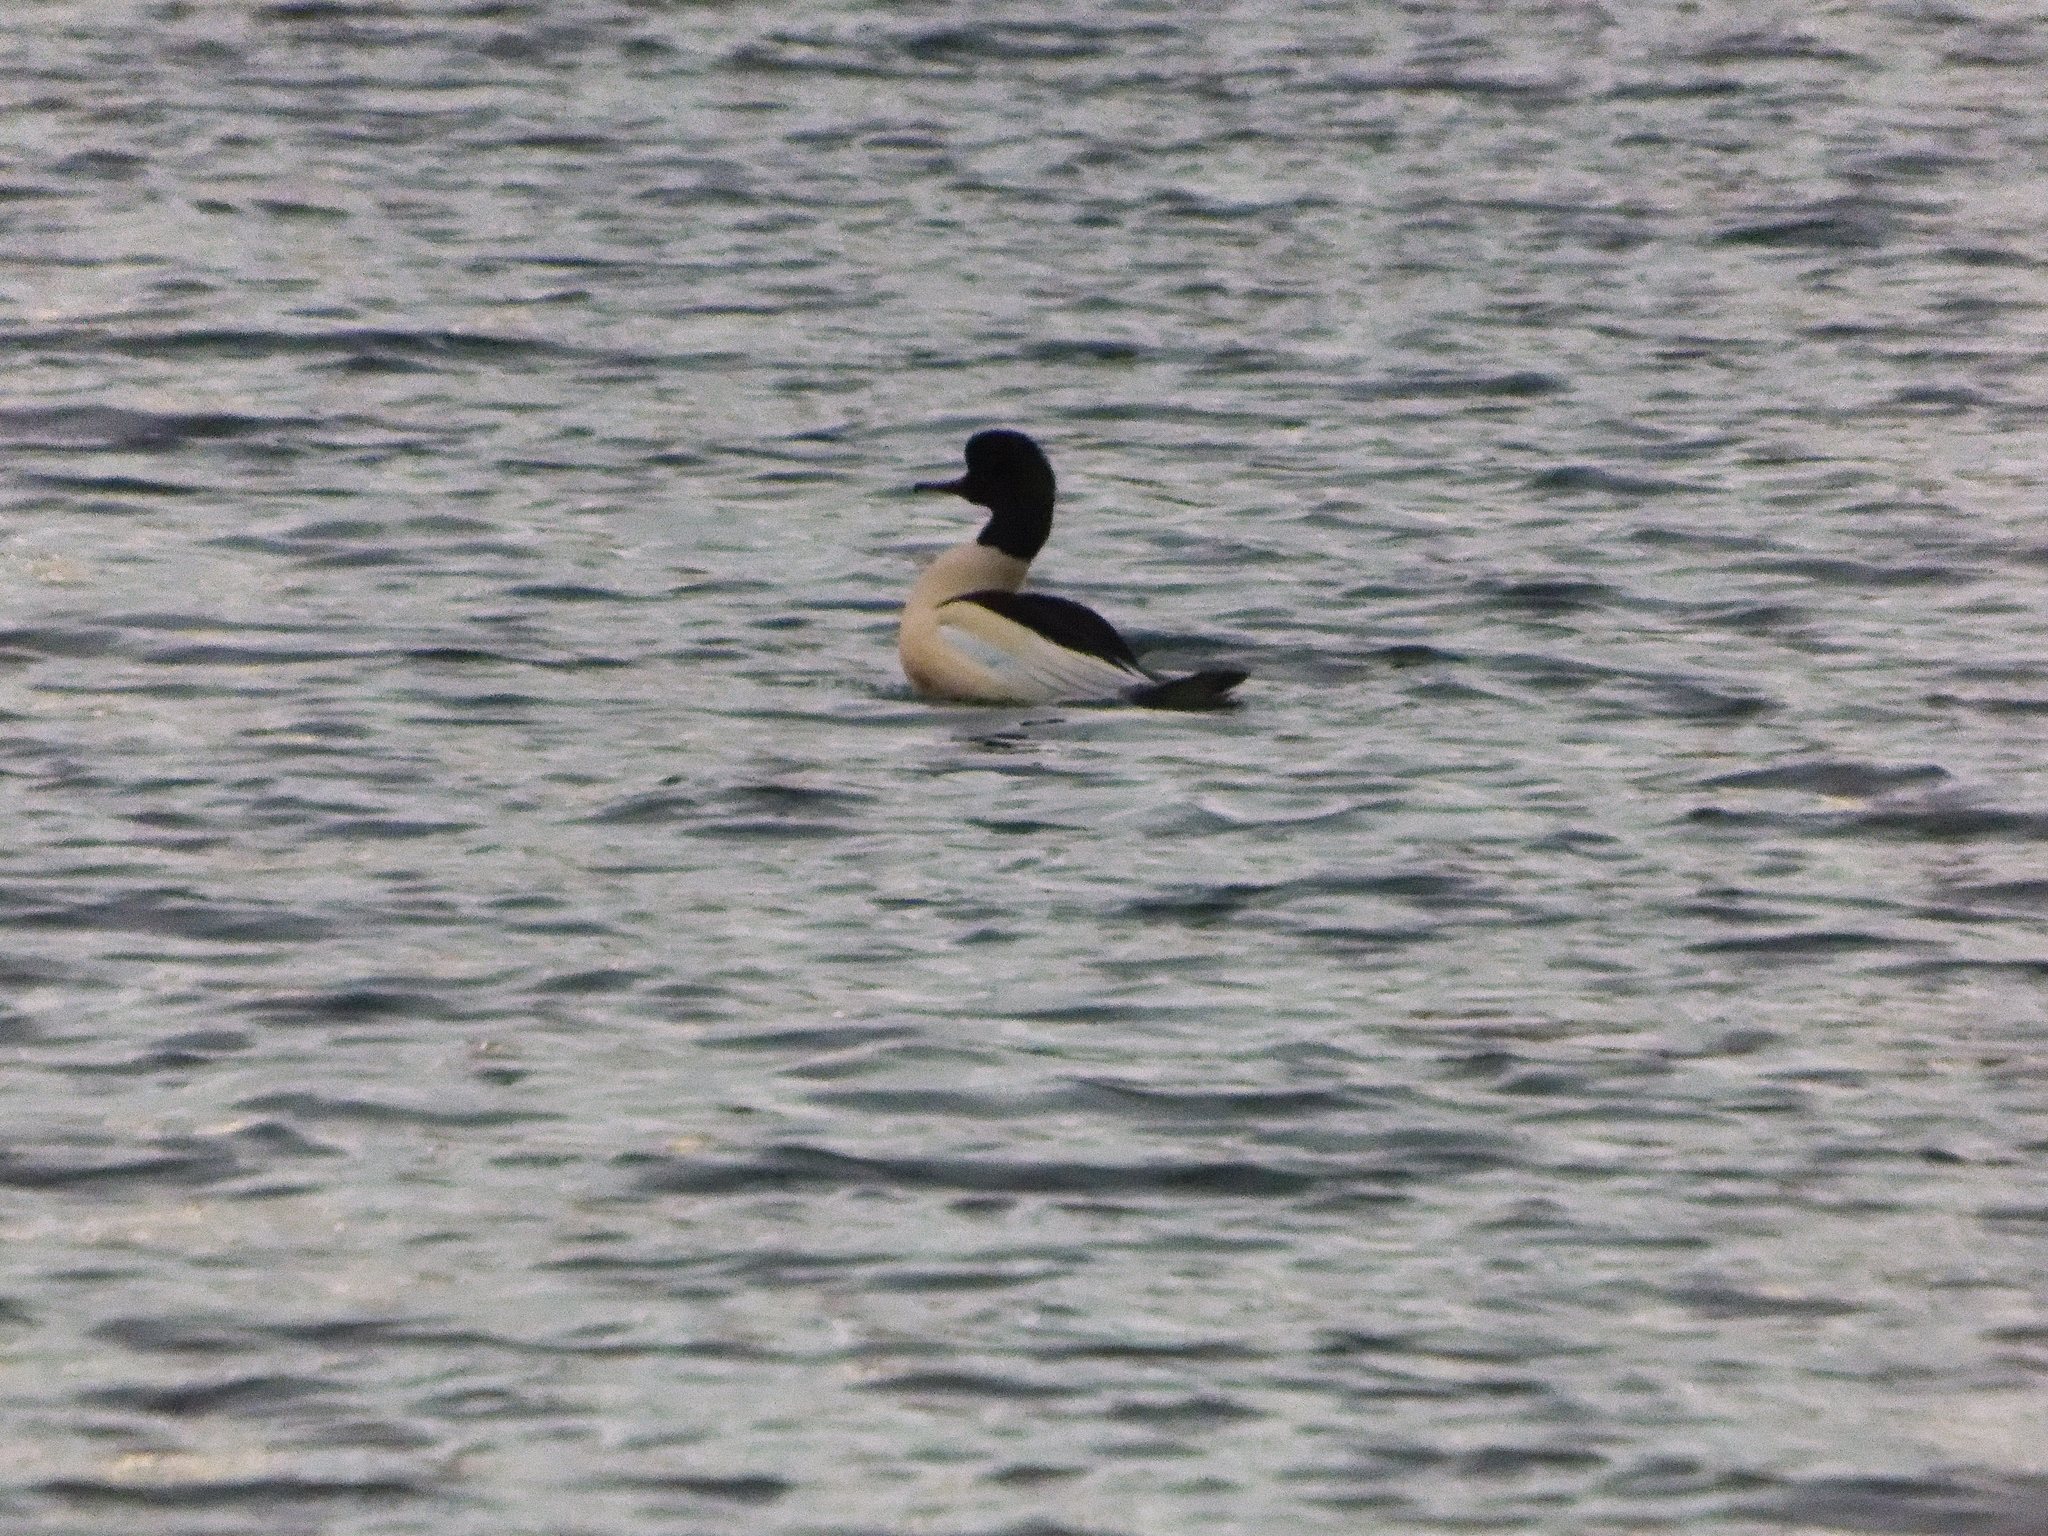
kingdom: Animalia
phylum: Chordata
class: Aves
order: Anseriformes
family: Anatidae
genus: Mergus
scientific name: Mergus merganser
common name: Common merganser
